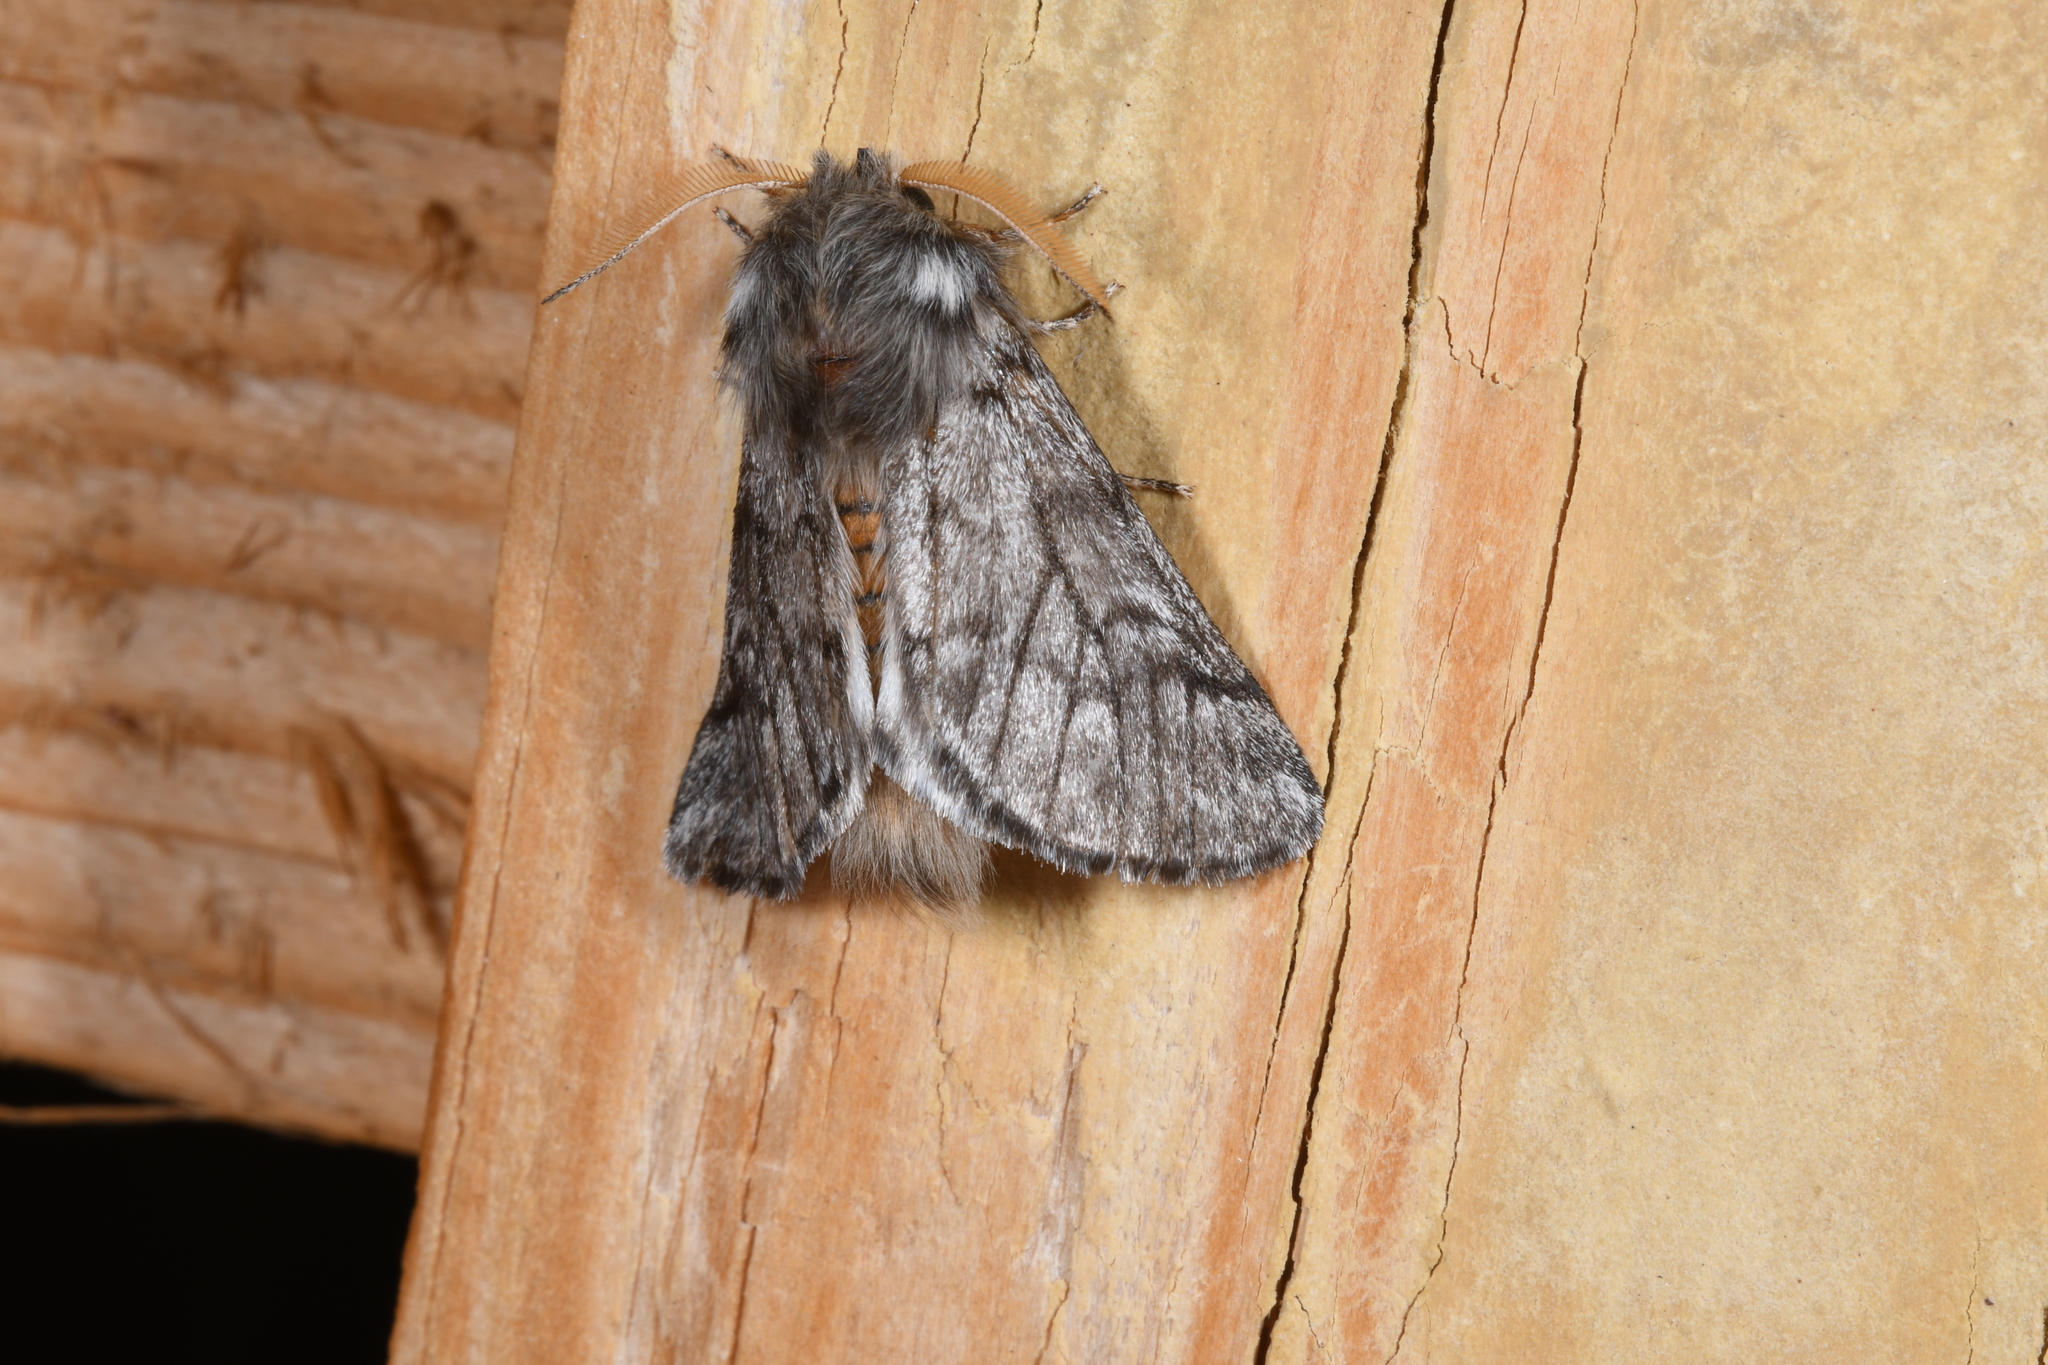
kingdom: Animalia
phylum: Arthropoda
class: Insecta
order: Lepidoptera
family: Notodontidae
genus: Thaumetopoea
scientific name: Thaumetopoea pityocampa
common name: Pine processionary
